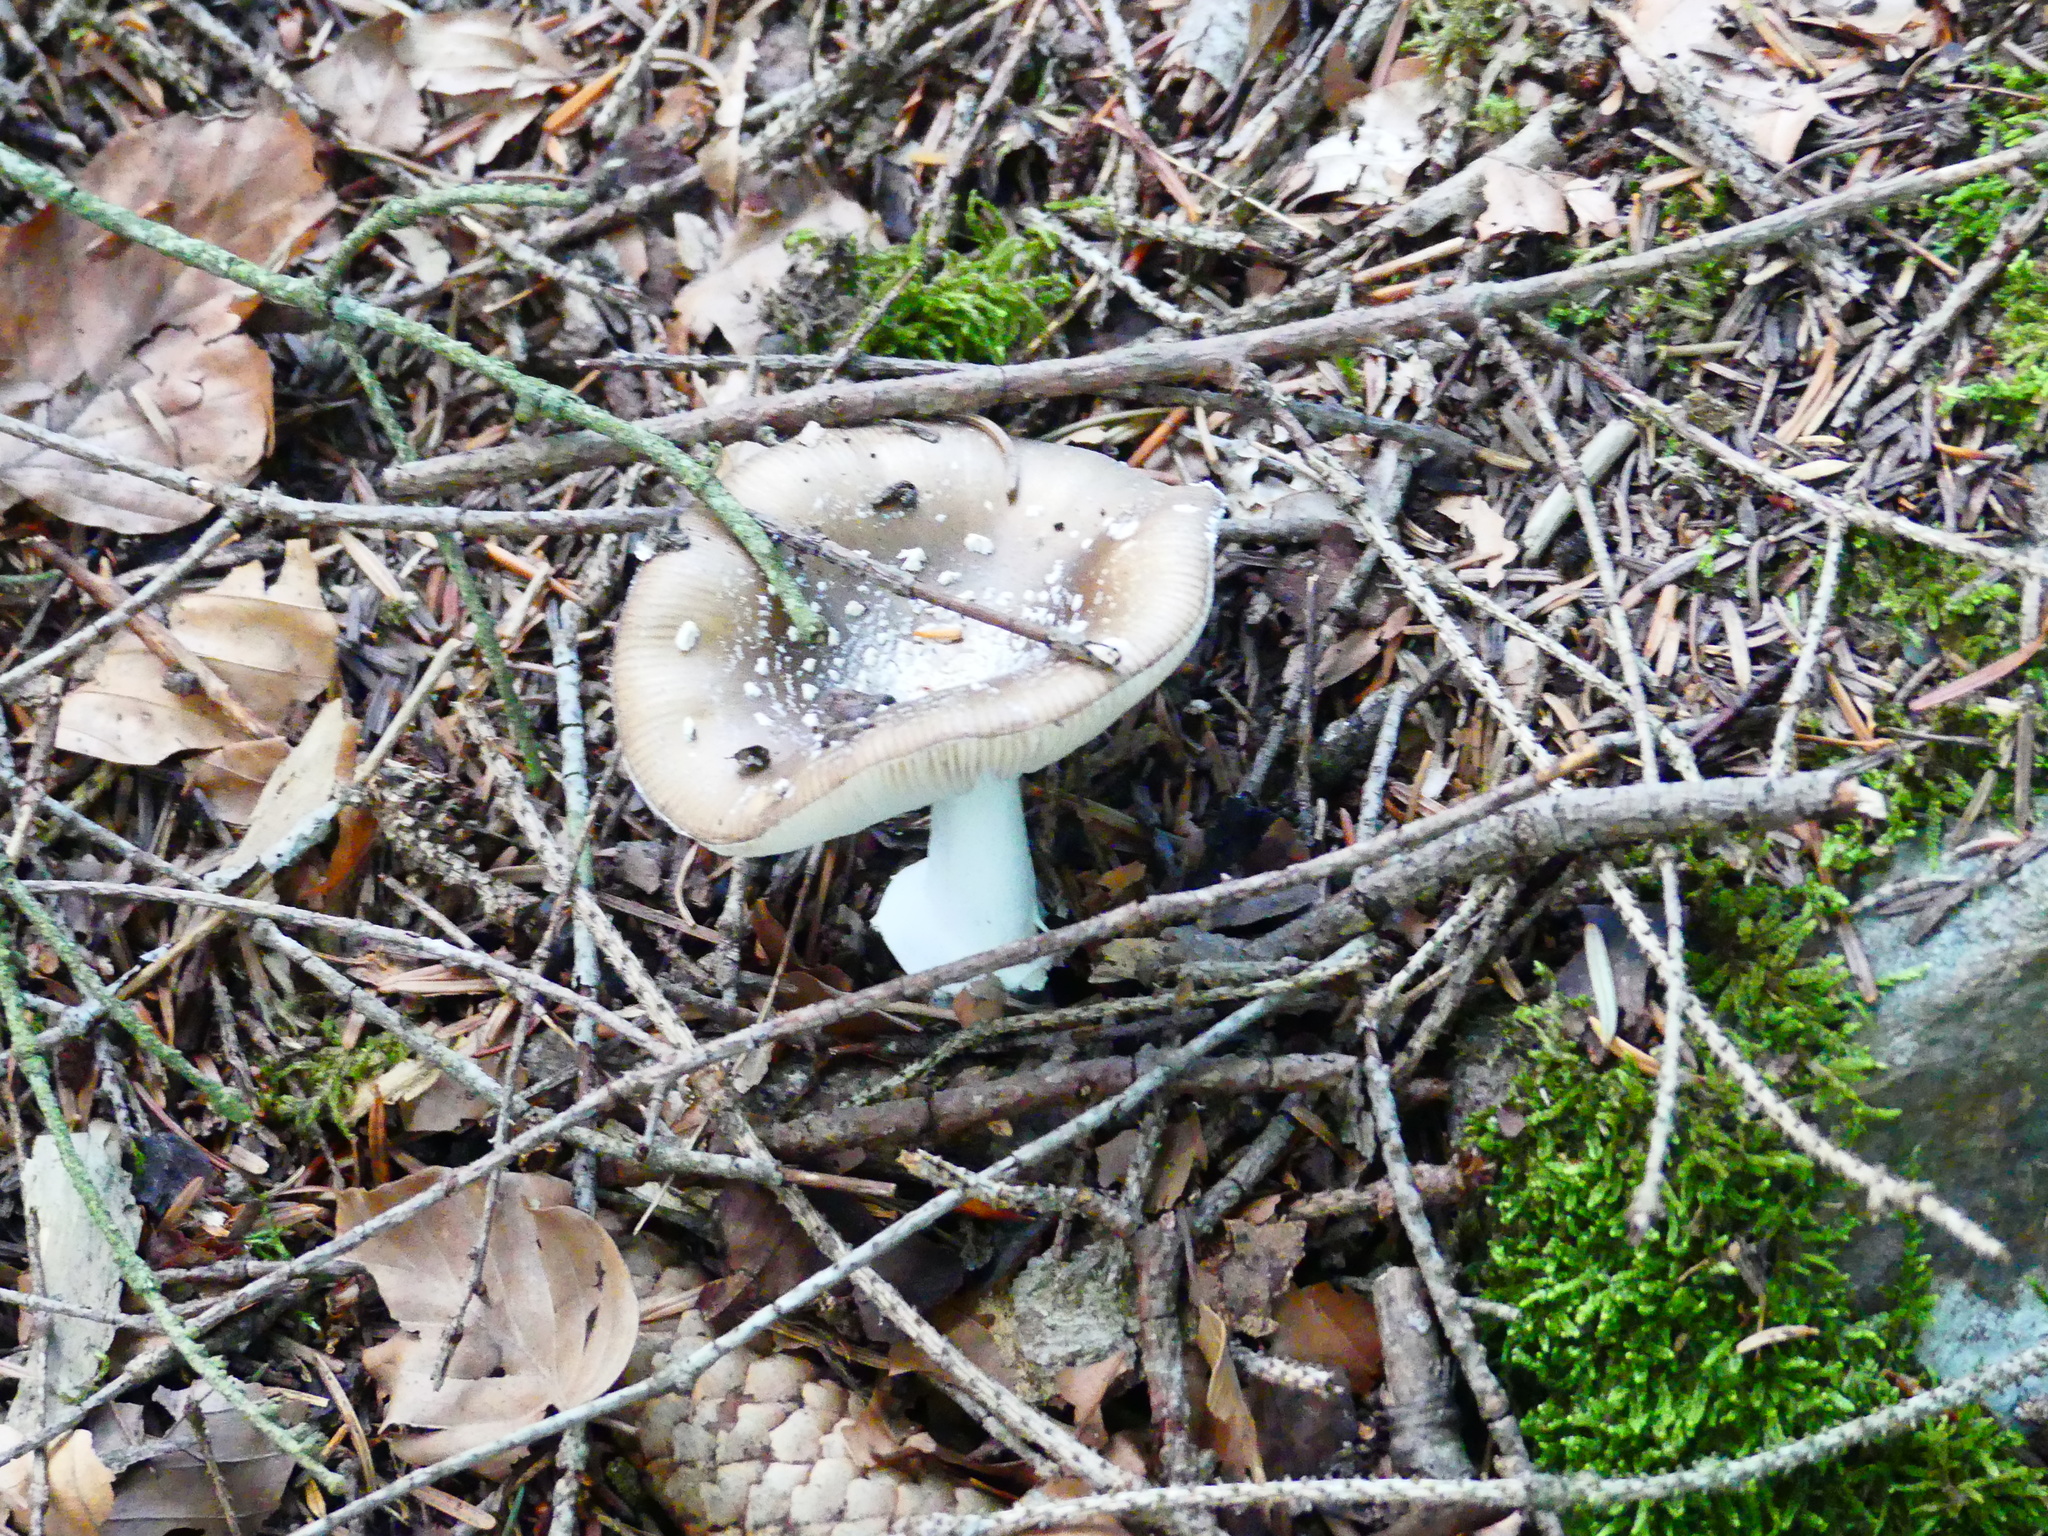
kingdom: Fungi
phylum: Basidiomycota
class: Agaricomycetes
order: Agaricales
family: Amanitaceae
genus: Amanita
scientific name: Amanita pantherina
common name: Panthercap
